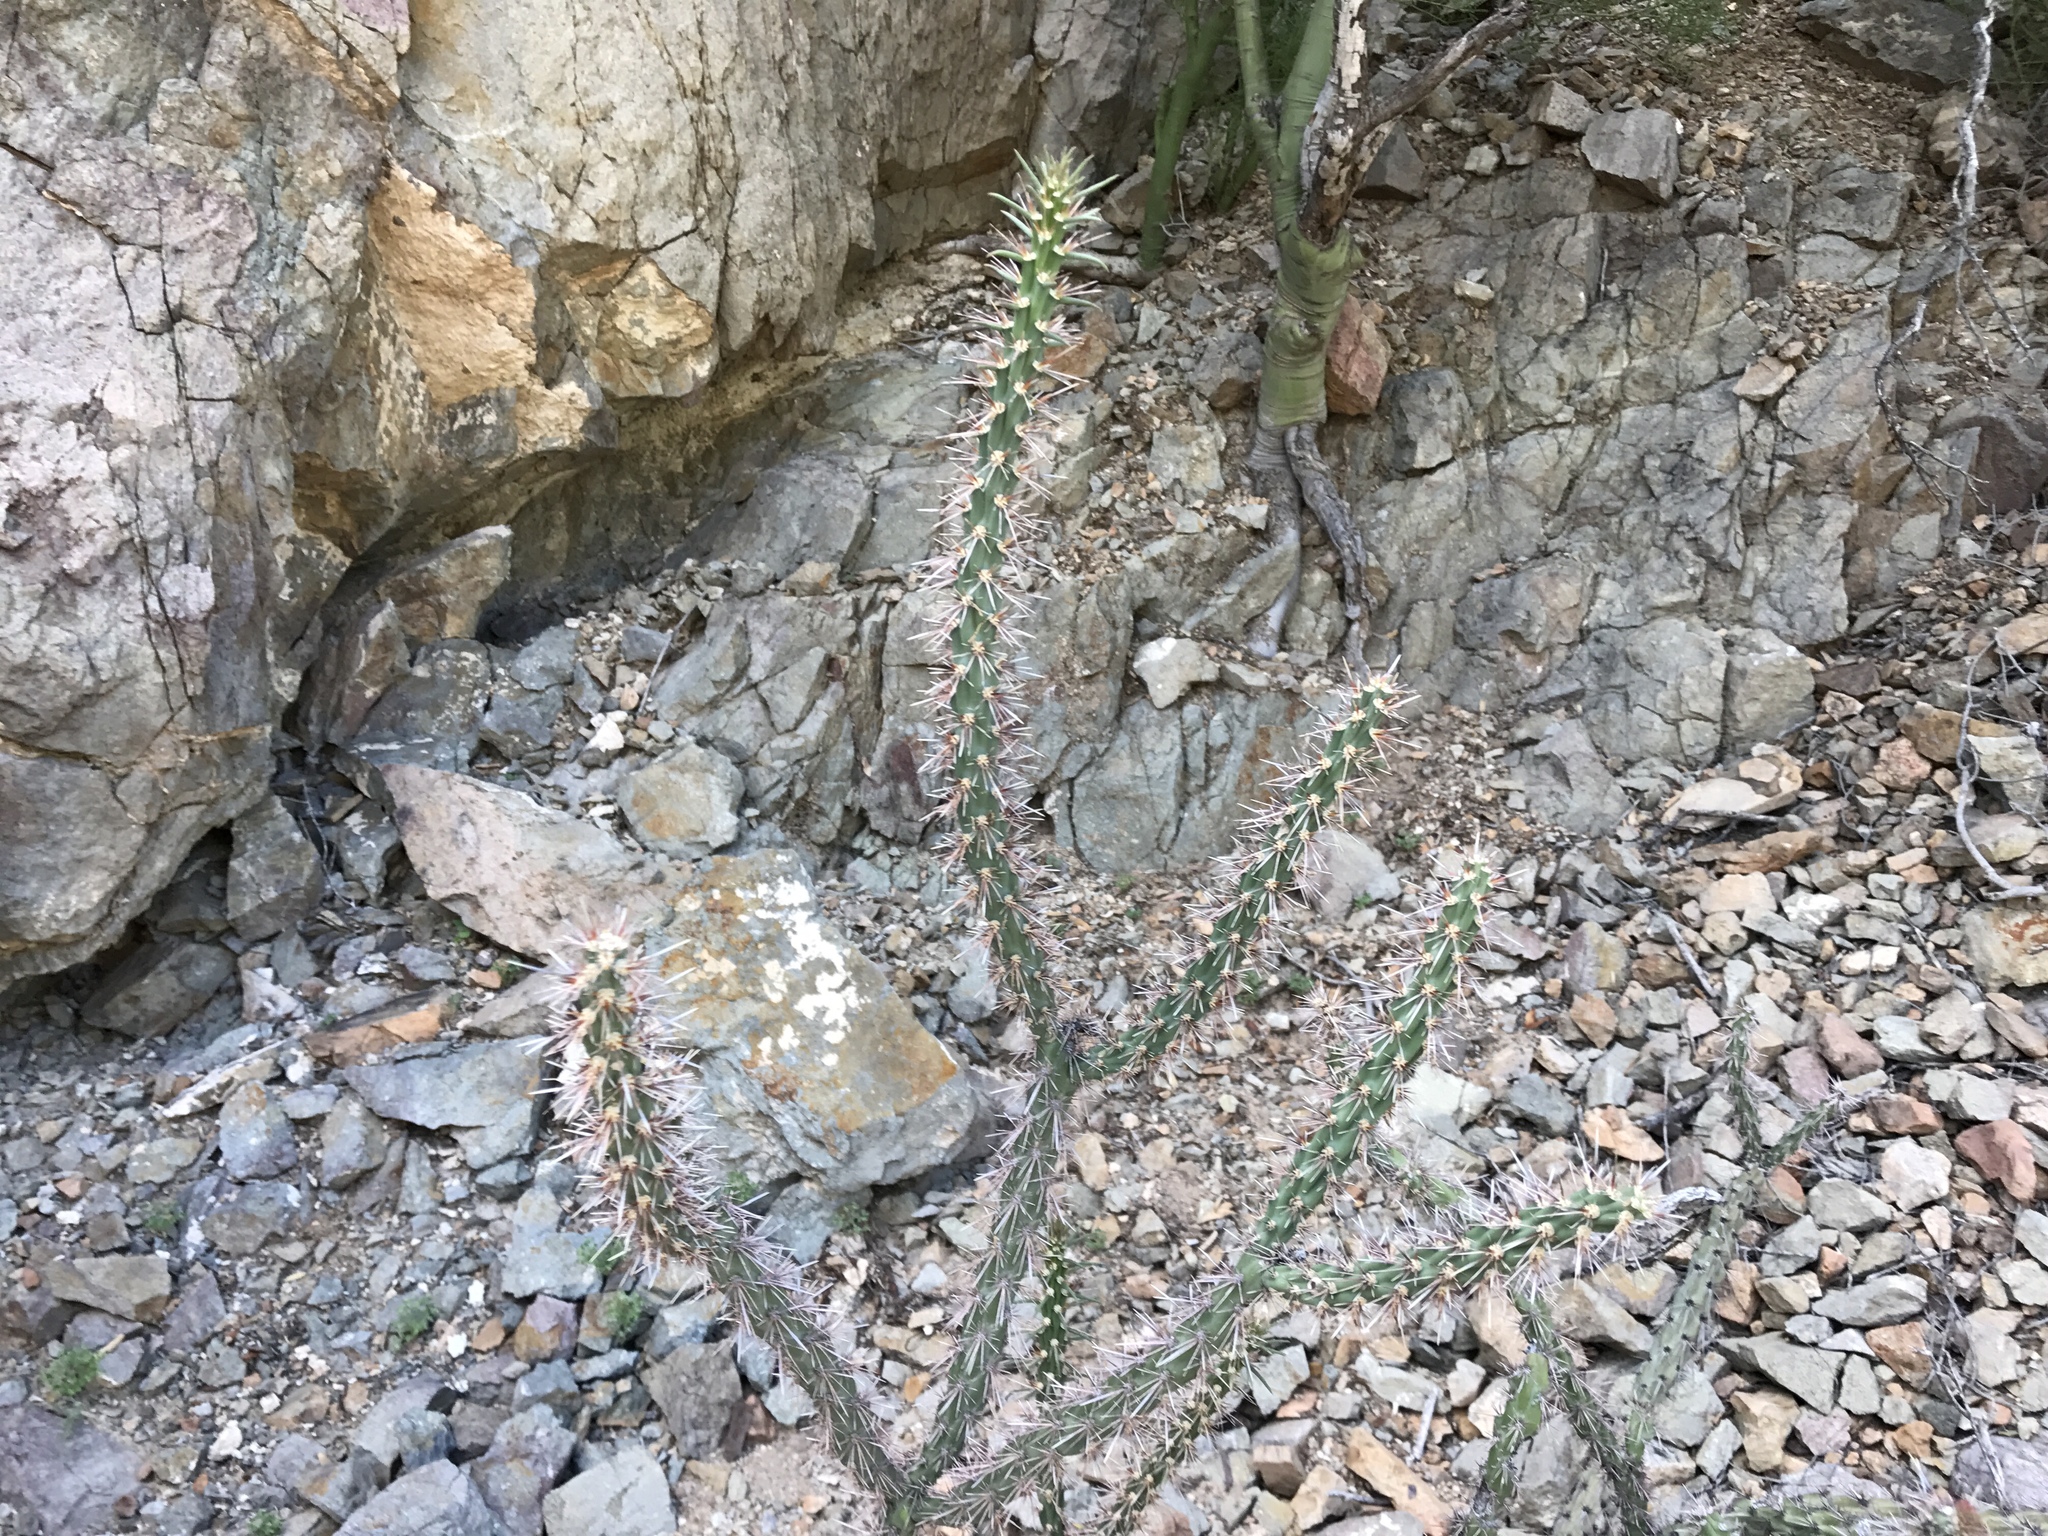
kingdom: Plantae
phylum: Tracheophyta
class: Magnoliopsida
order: Caryophyllales
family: Cactaceae
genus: Cylindropuntia
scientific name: Cylindropuntia imbricata
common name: Candelabrum cactus
